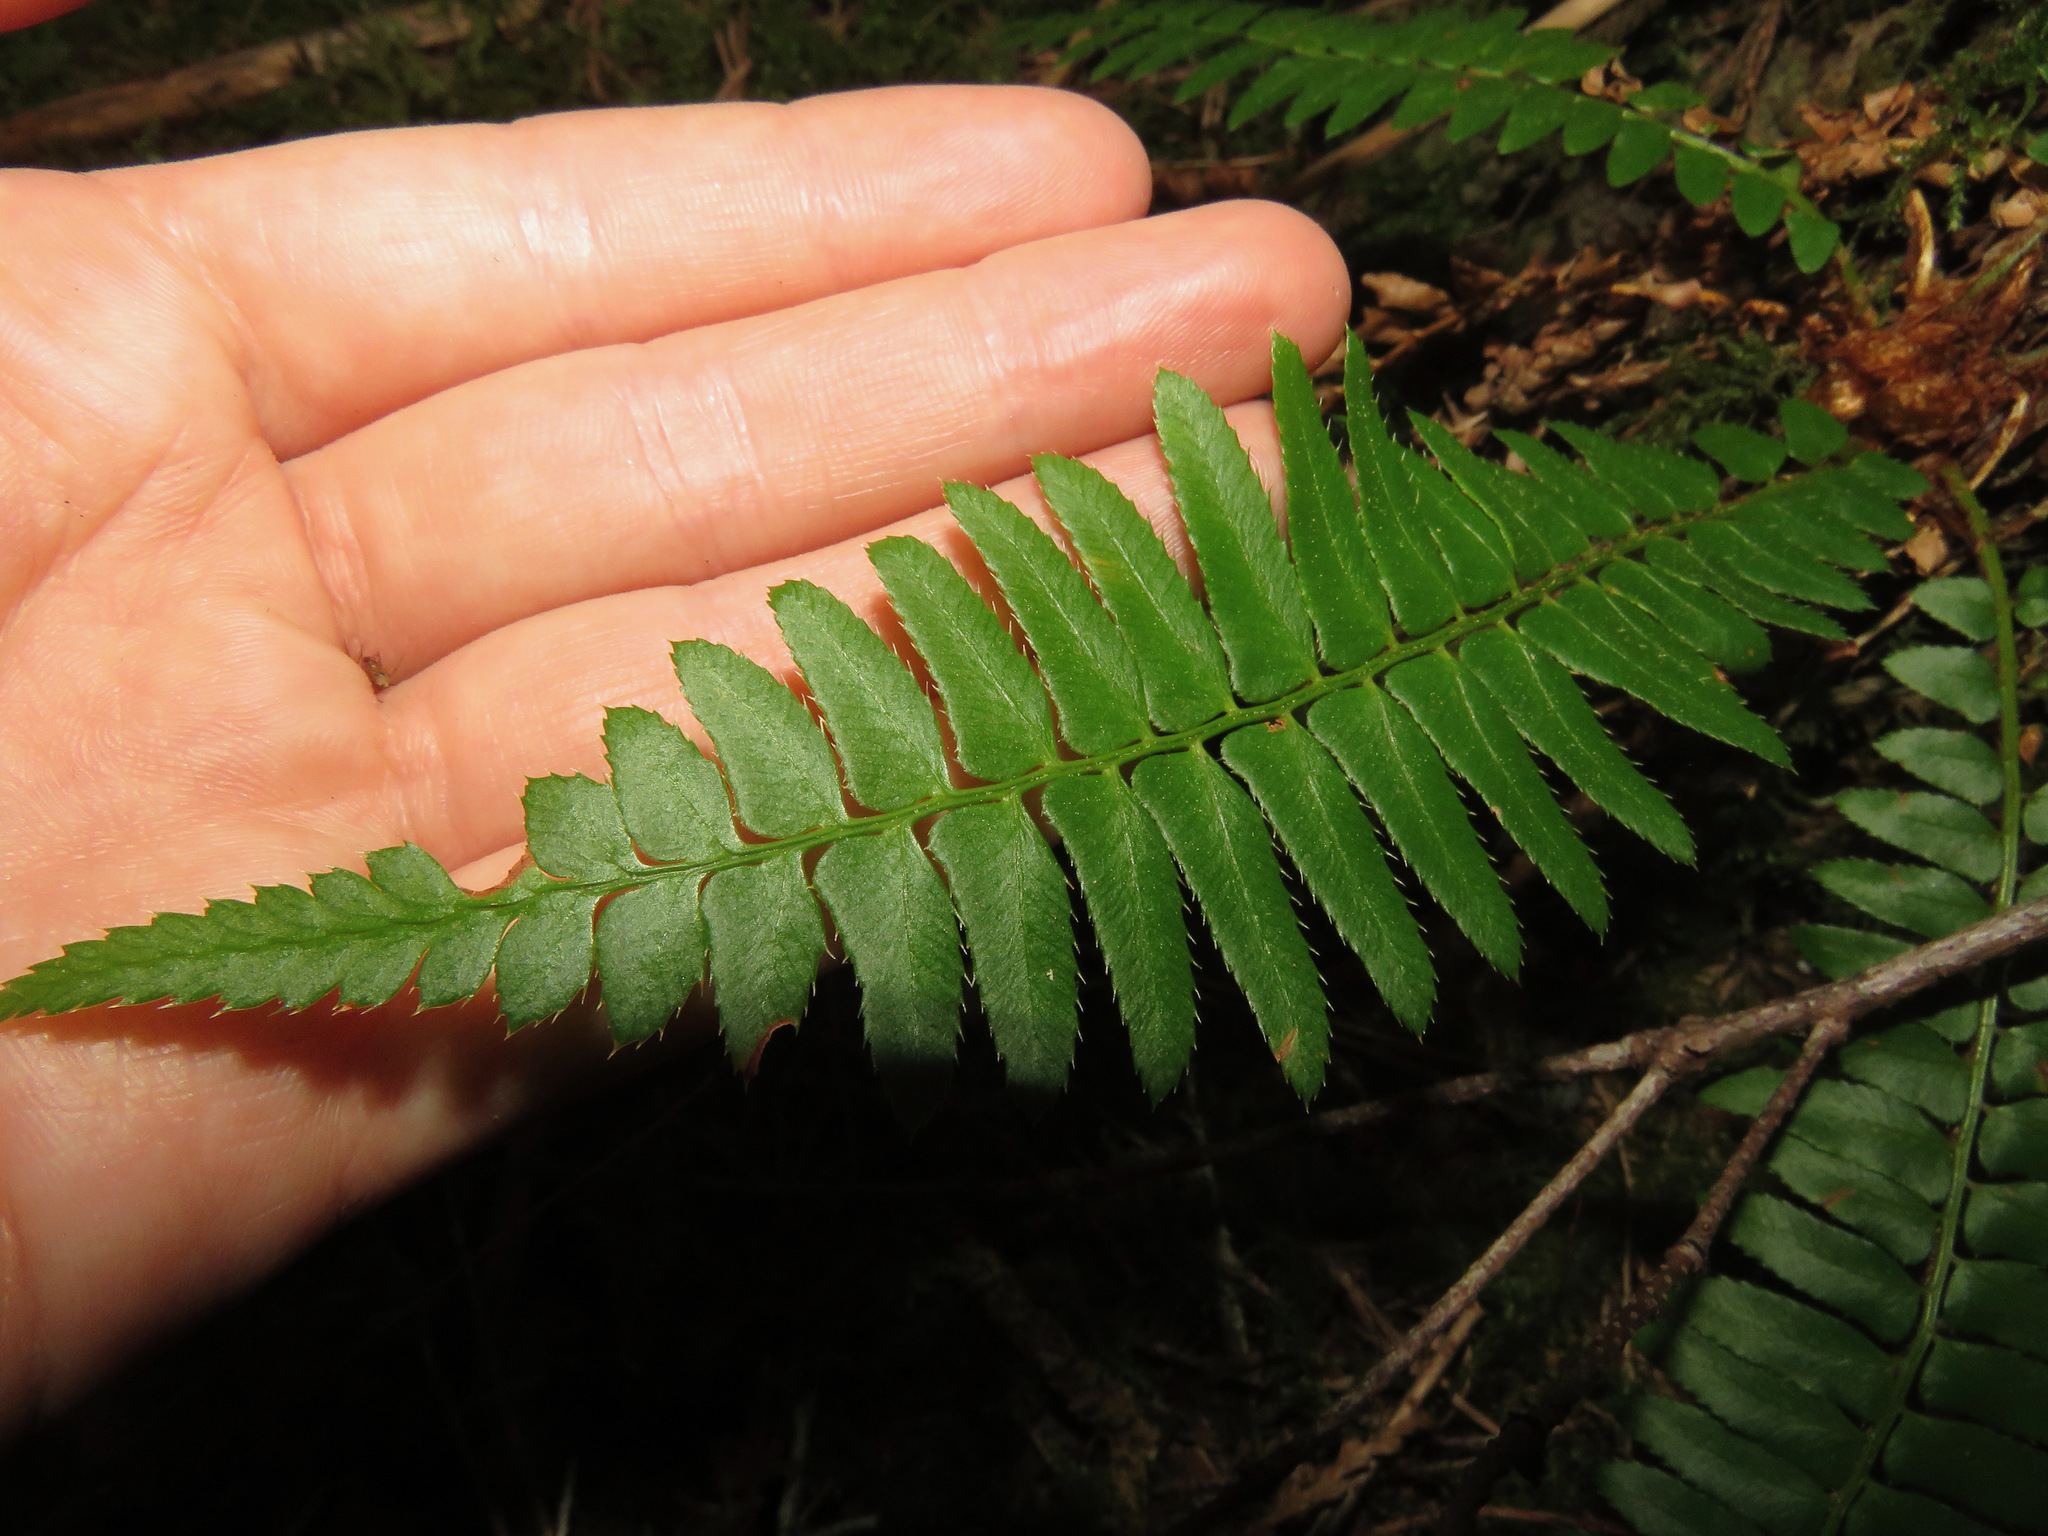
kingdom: Plantae
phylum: Tracheophyta
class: Polypodiopsida
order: Polypodiales
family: Dryopteridaceae
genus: Polystichum
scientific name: Polystichum munitum
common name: Western sword-fern
